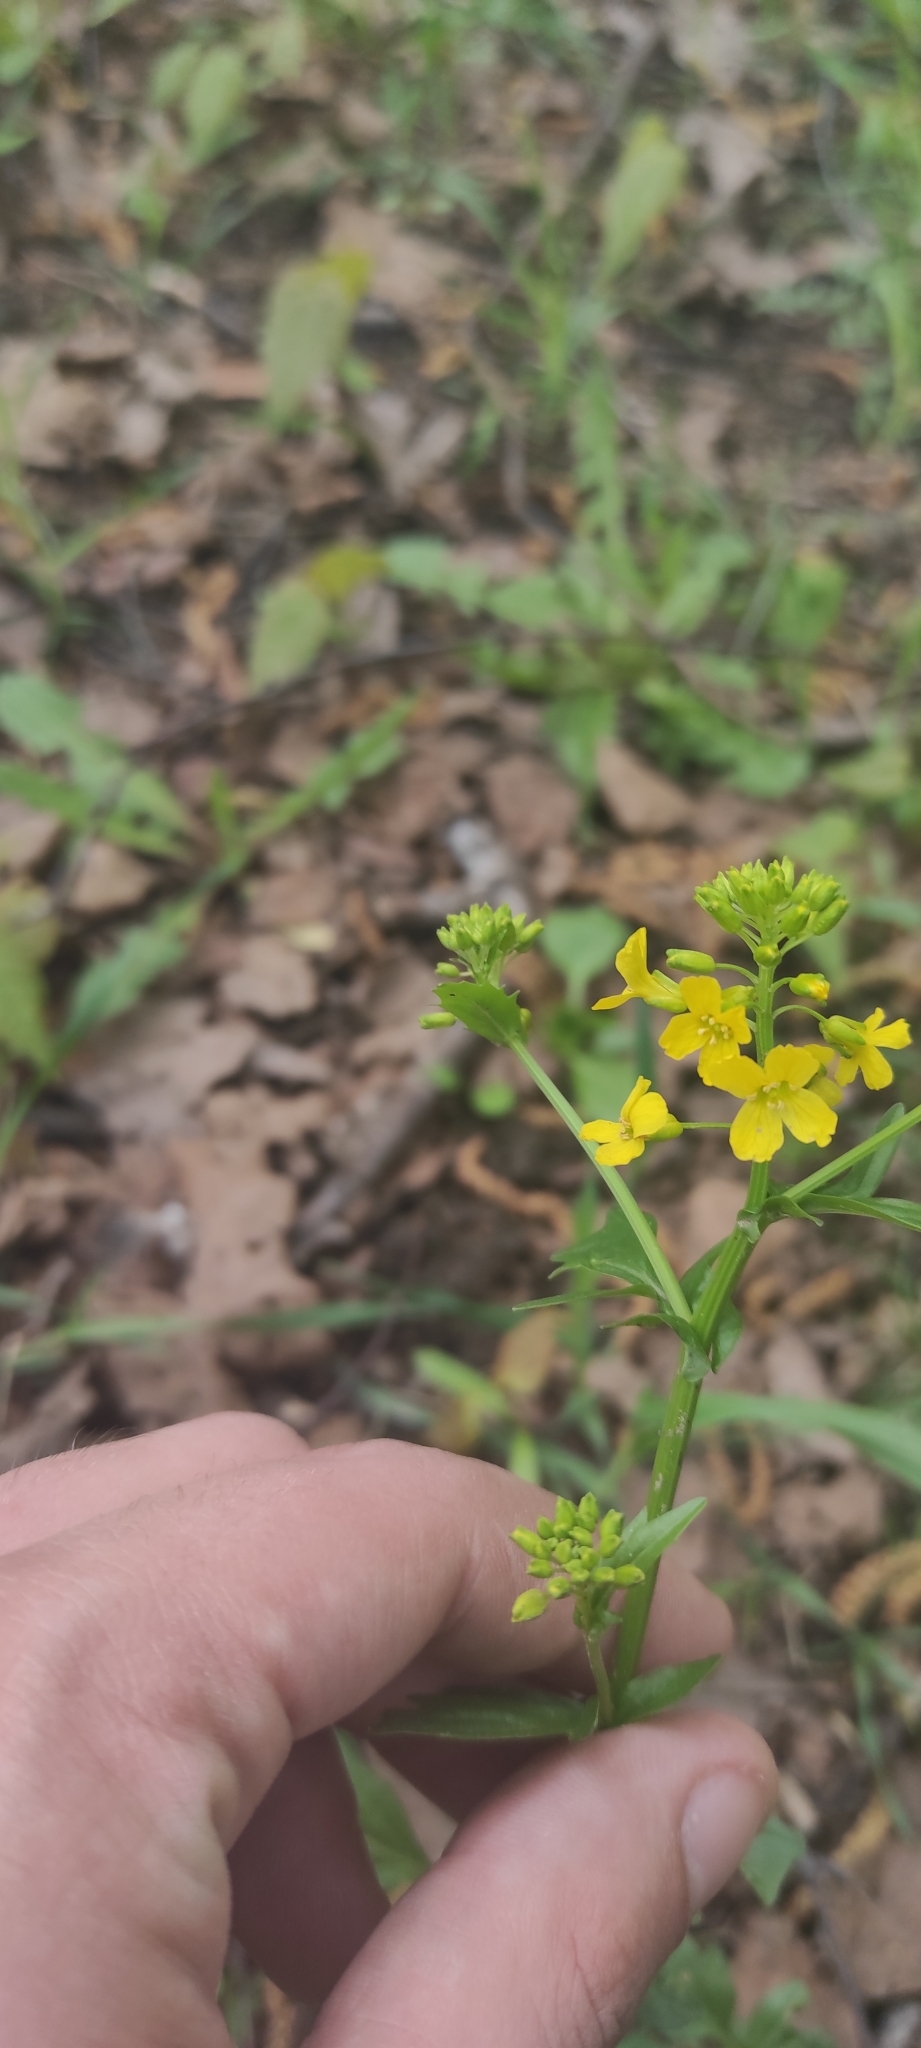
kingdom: Plantae
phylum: Tracheophyta
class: Magnoliopsida
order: Brassicales
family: Brassicaceae
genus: Barbarea
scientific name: Barbarea vulgaris
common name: Cressy-greens
